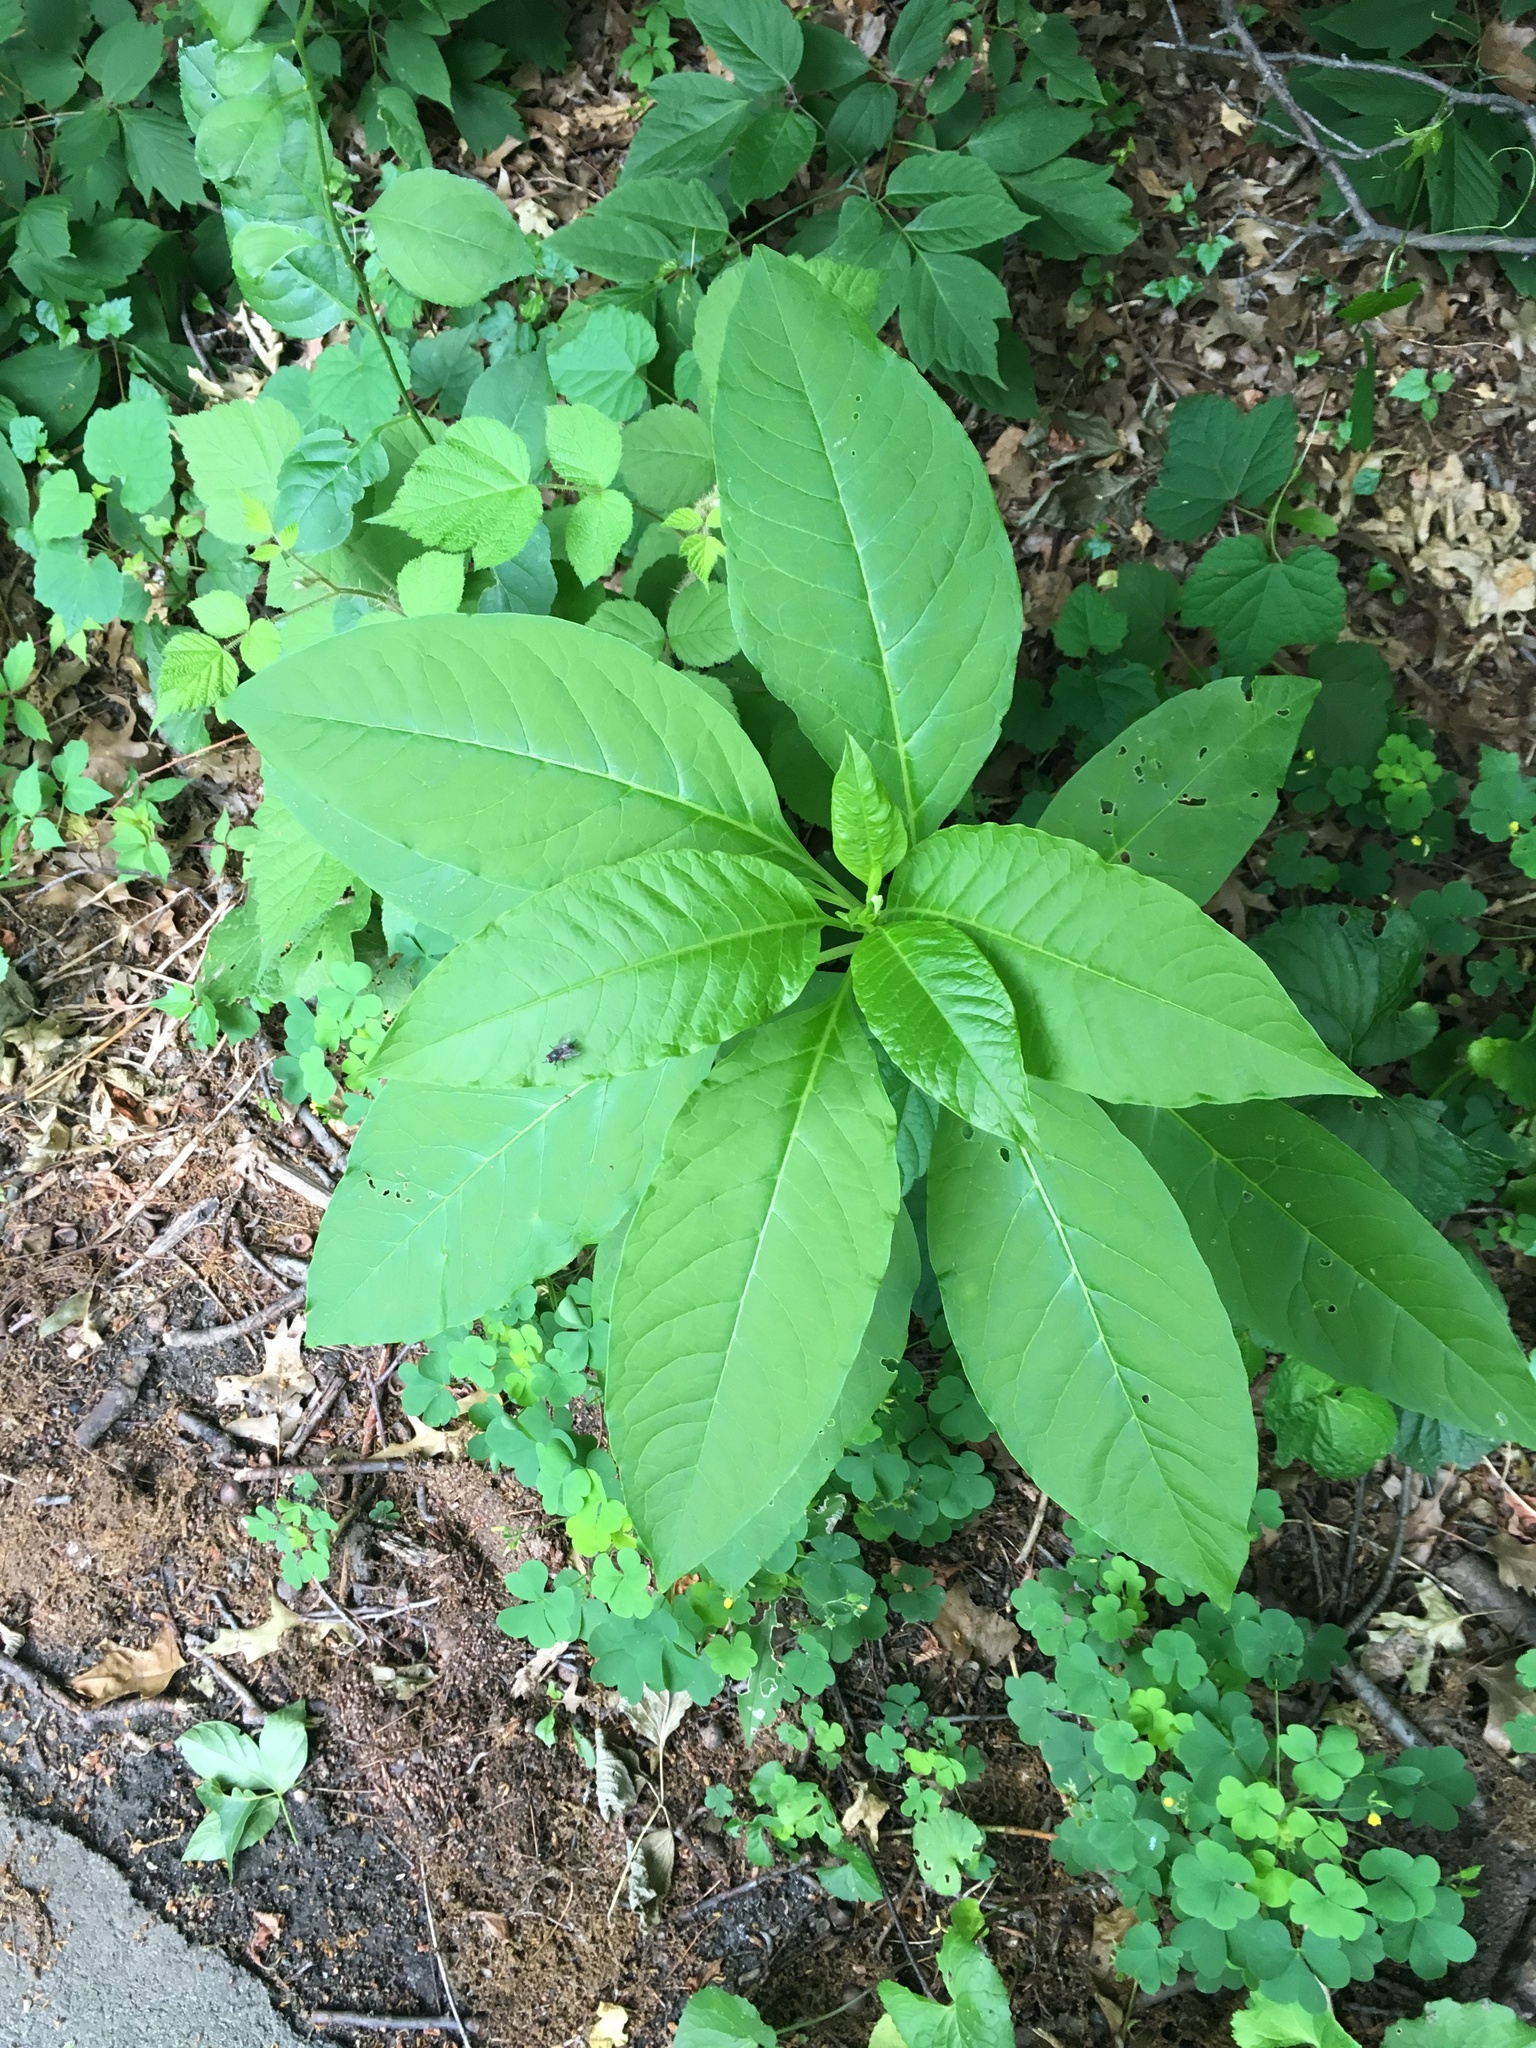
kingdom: Plantae
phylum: Tracheophyta
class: Magnoliopsida
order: Caryophyllales
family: Phytolaccaceae
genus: Phytolacca
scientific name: Phytolacca americana
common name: American pokeweed
